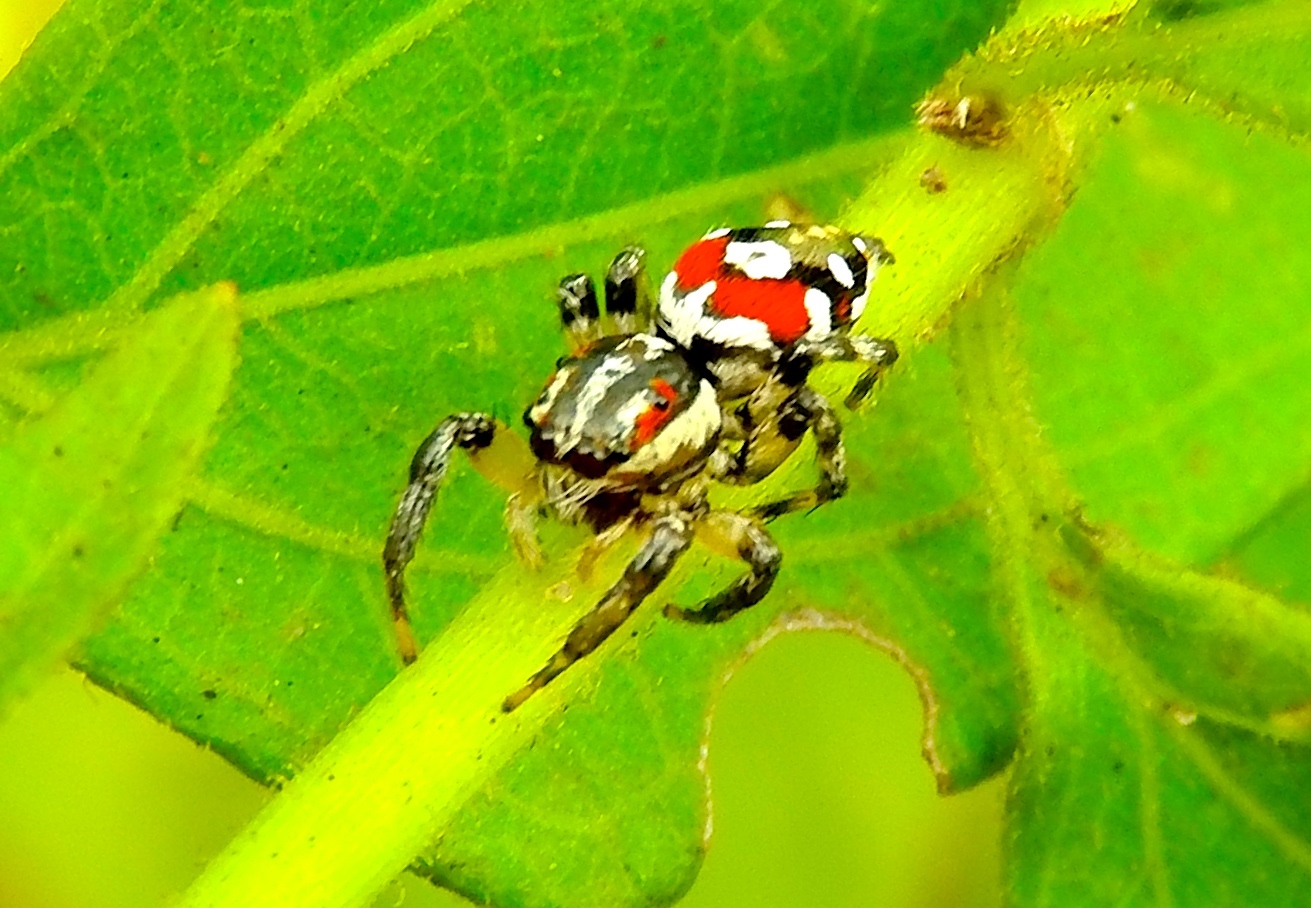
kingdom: Animalia
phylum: Arthropoda
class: Arachnida
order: Araneae
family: Salticidae
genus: Nycerella
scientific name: Nycerella delecta
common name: Jumping spiders
